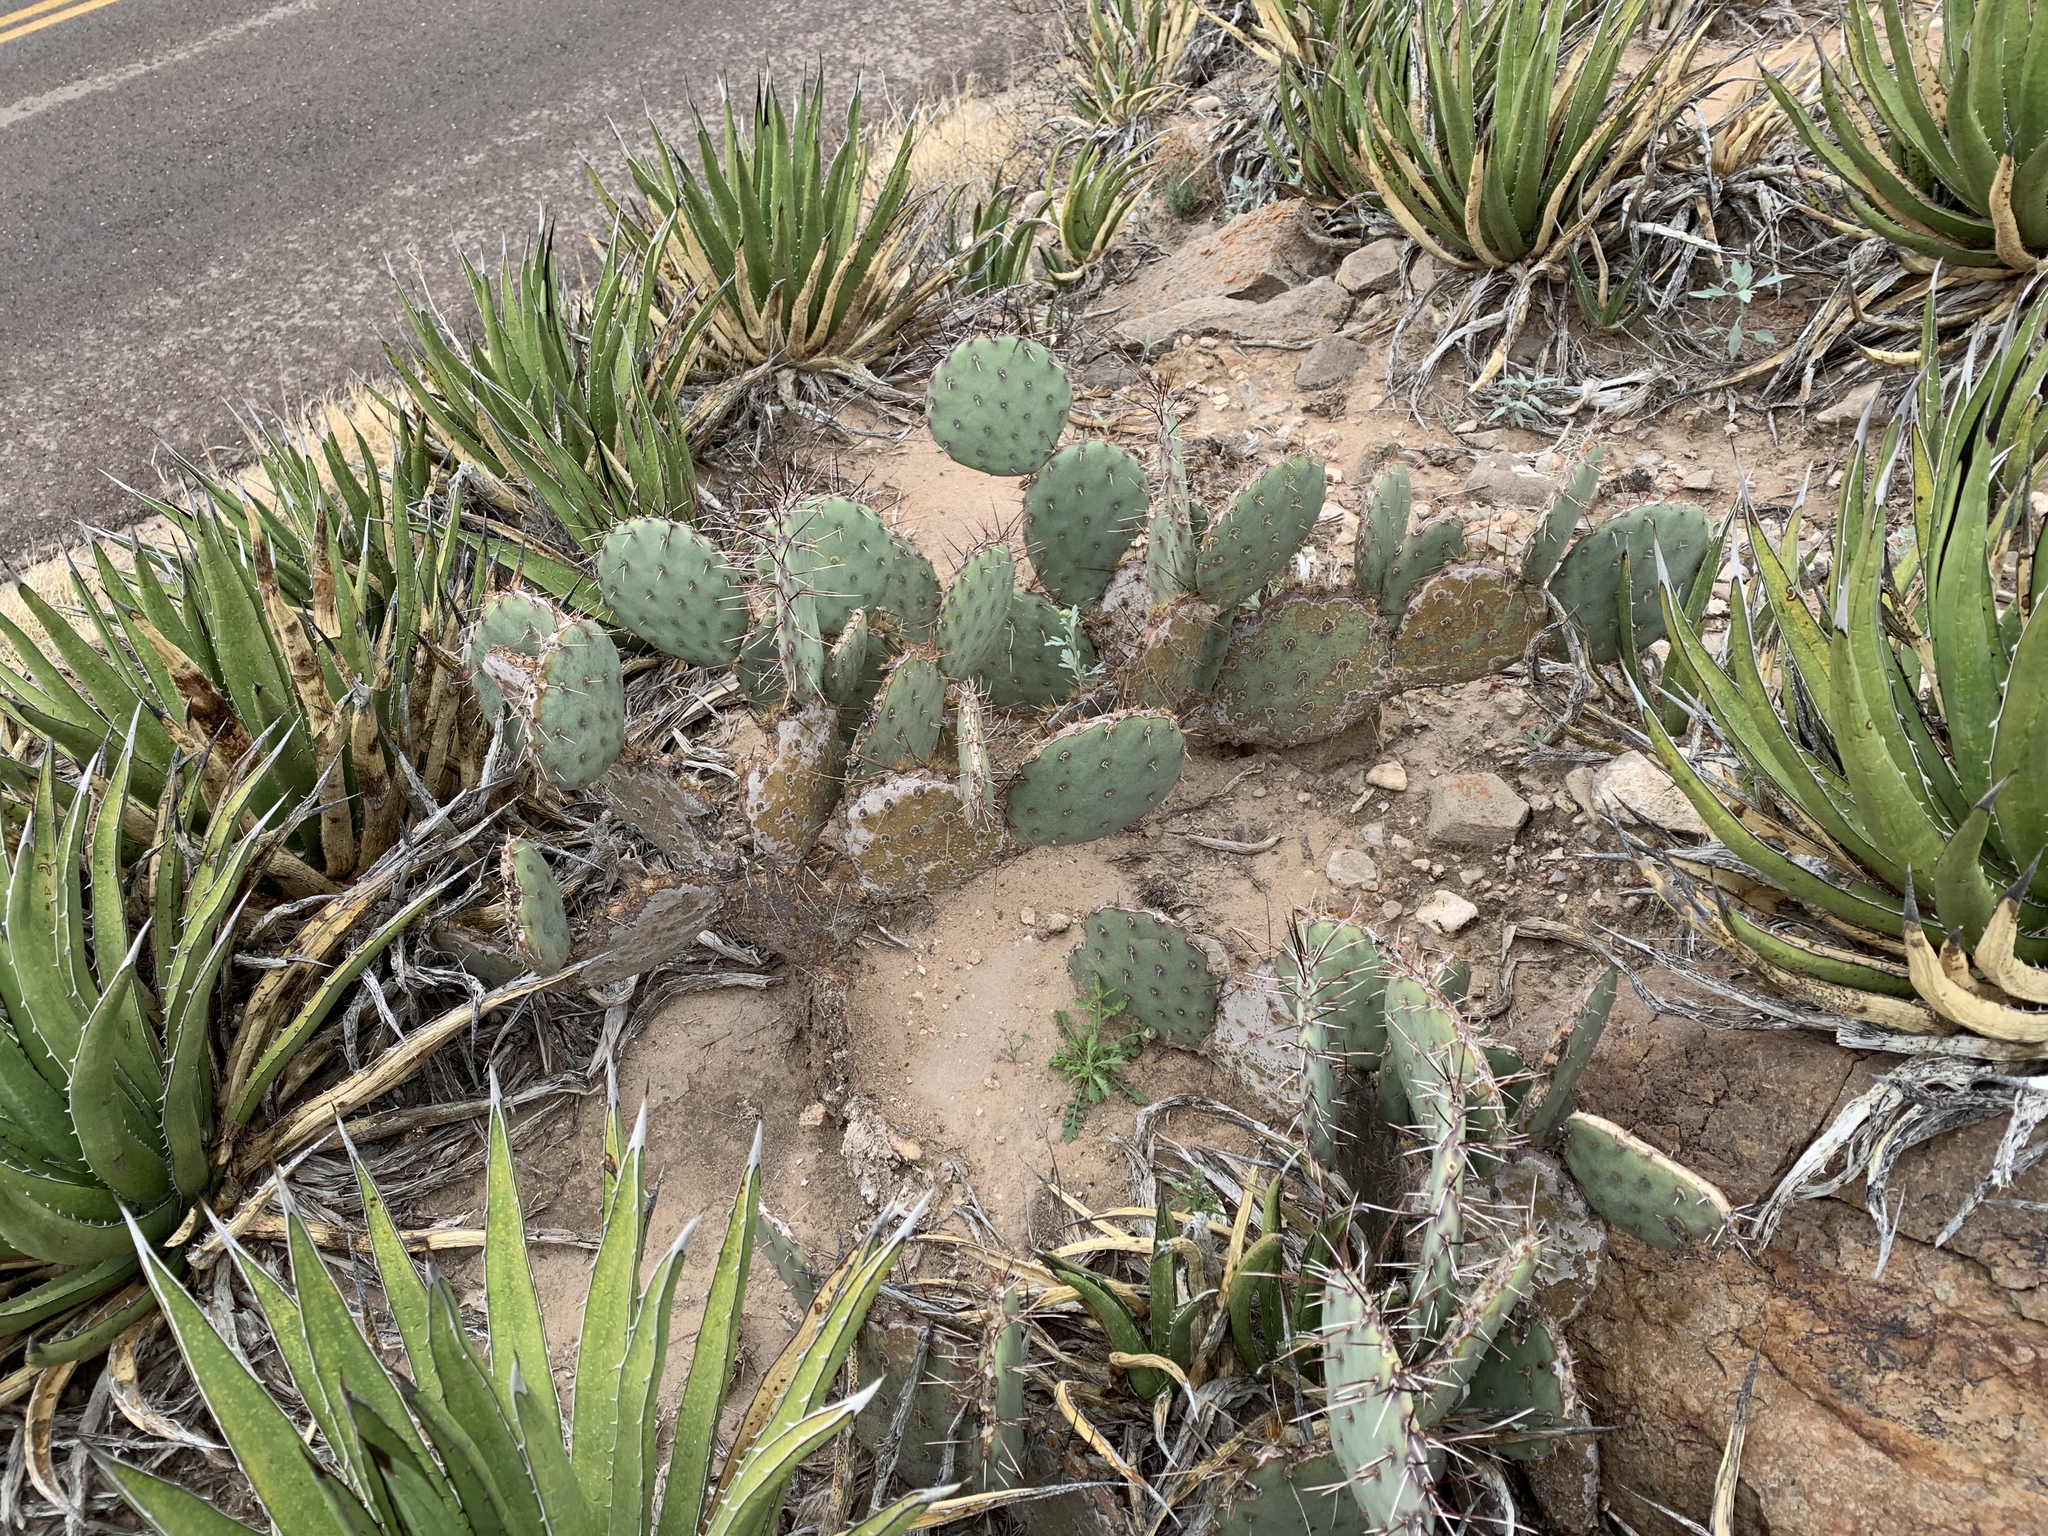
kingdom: Plantae
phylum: Tracheophyta
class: Magnoliopsida
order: Caryophyllales
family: Cactaceae
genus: Opuntia
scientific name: Opuntia phaeacantha
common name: New mexico prickly-pear
